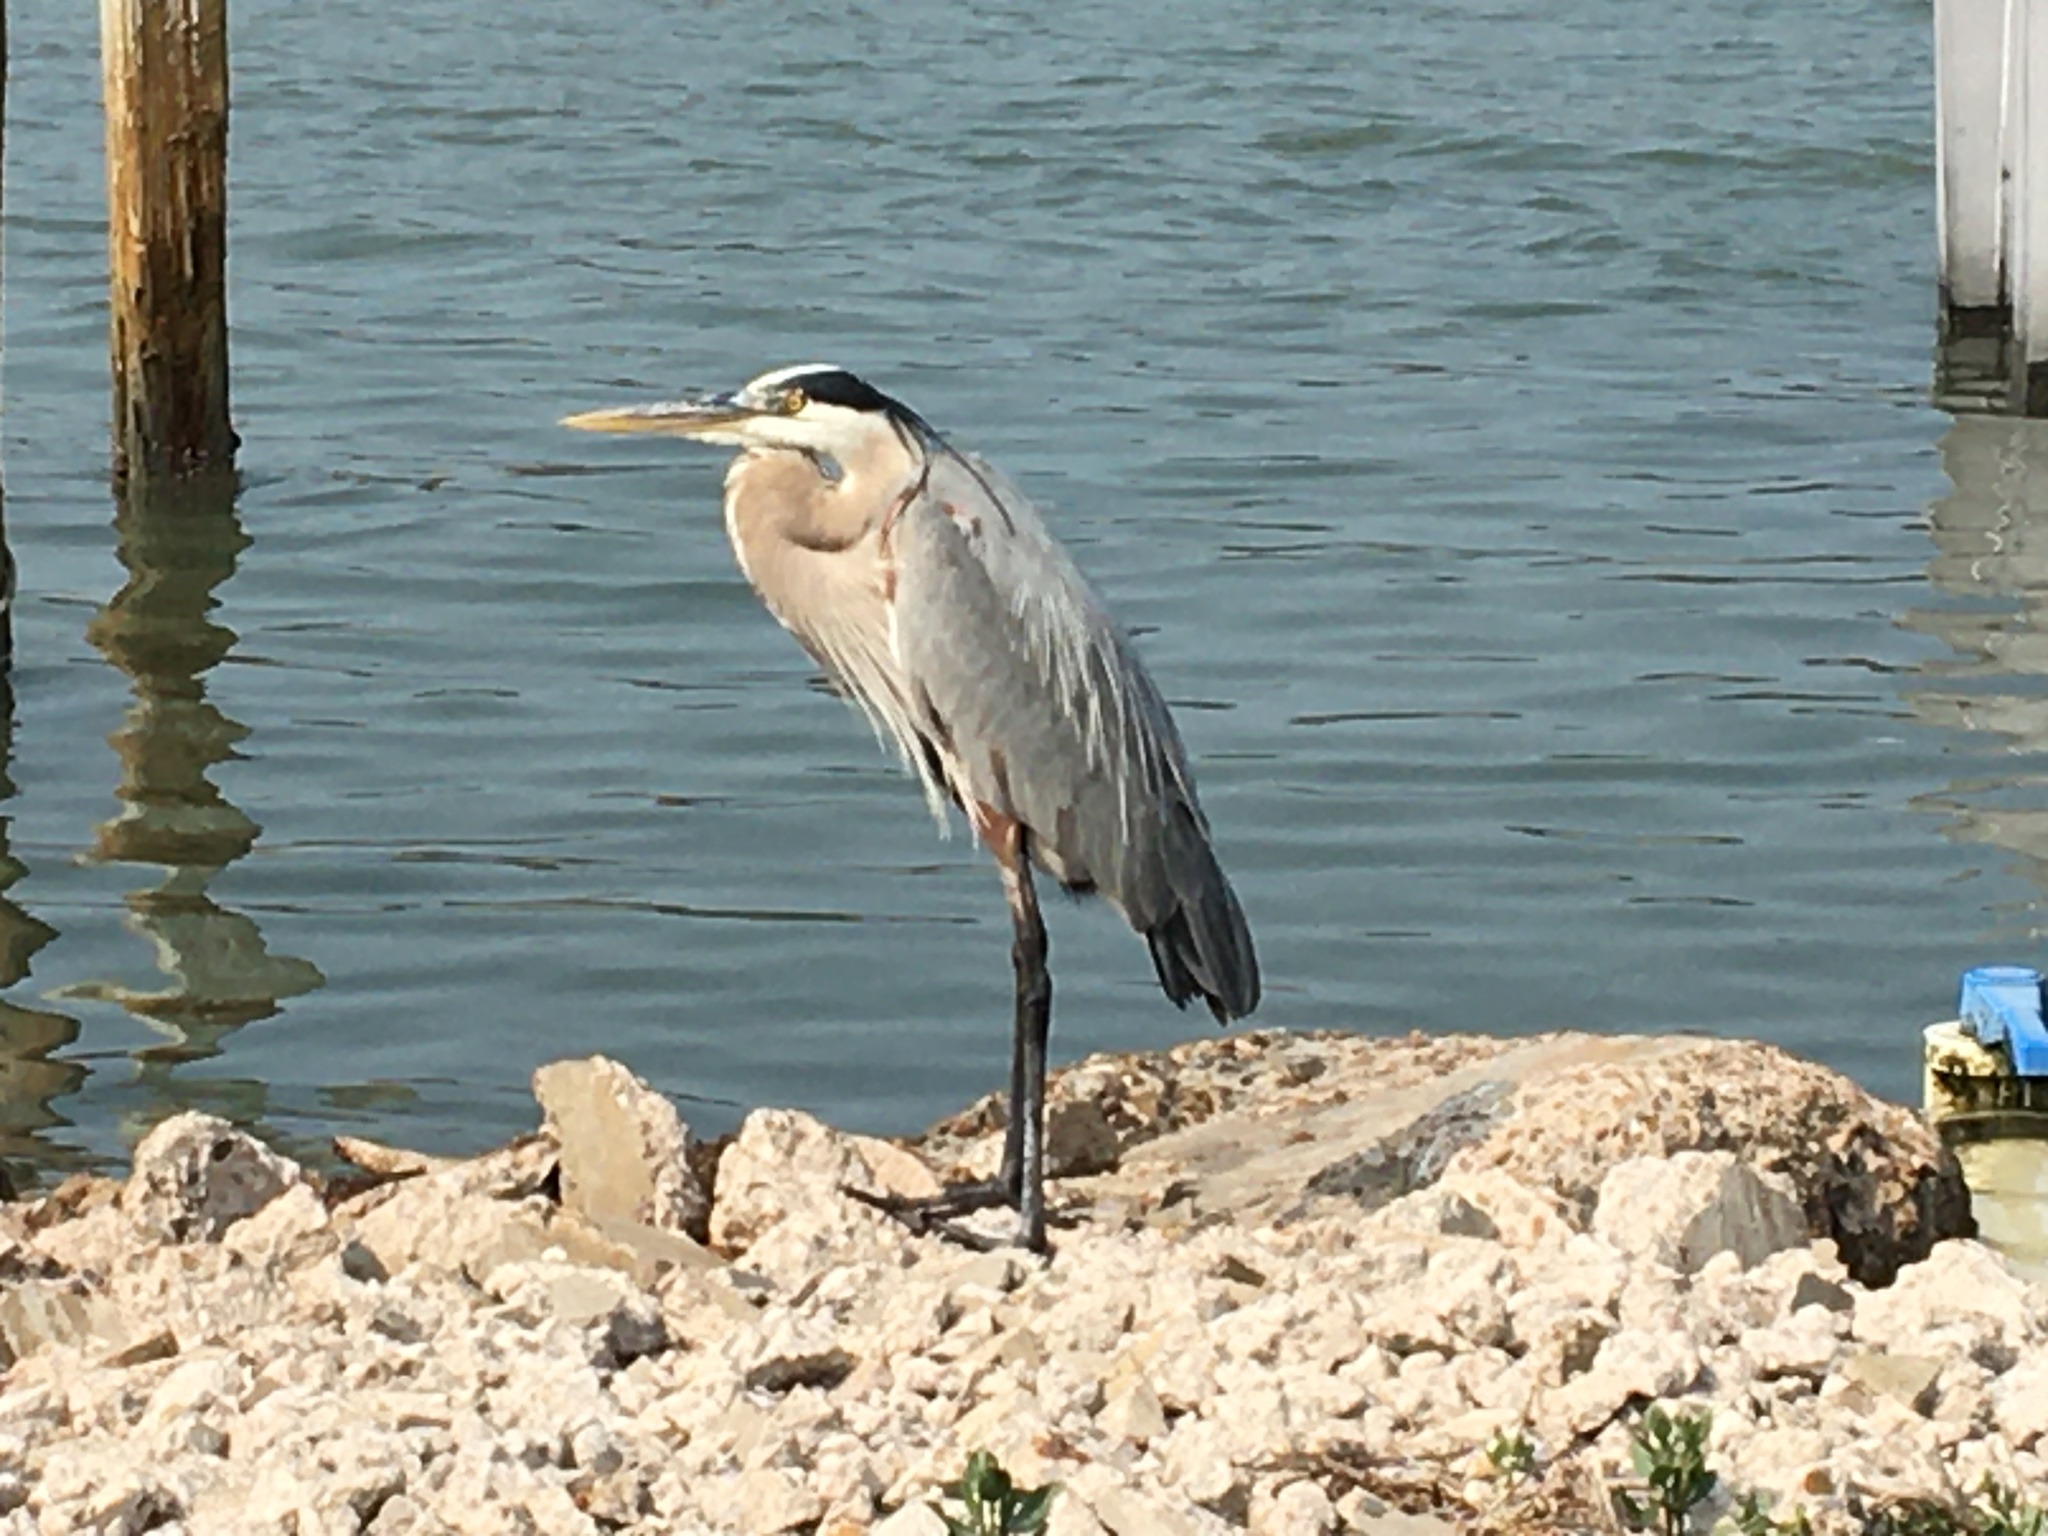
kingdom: Animalia
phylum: Chordata
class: Aves
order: Pelecaniformes
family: Ardeidae
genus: Ardea
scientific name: Ardea herodias
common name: Great blue heron
